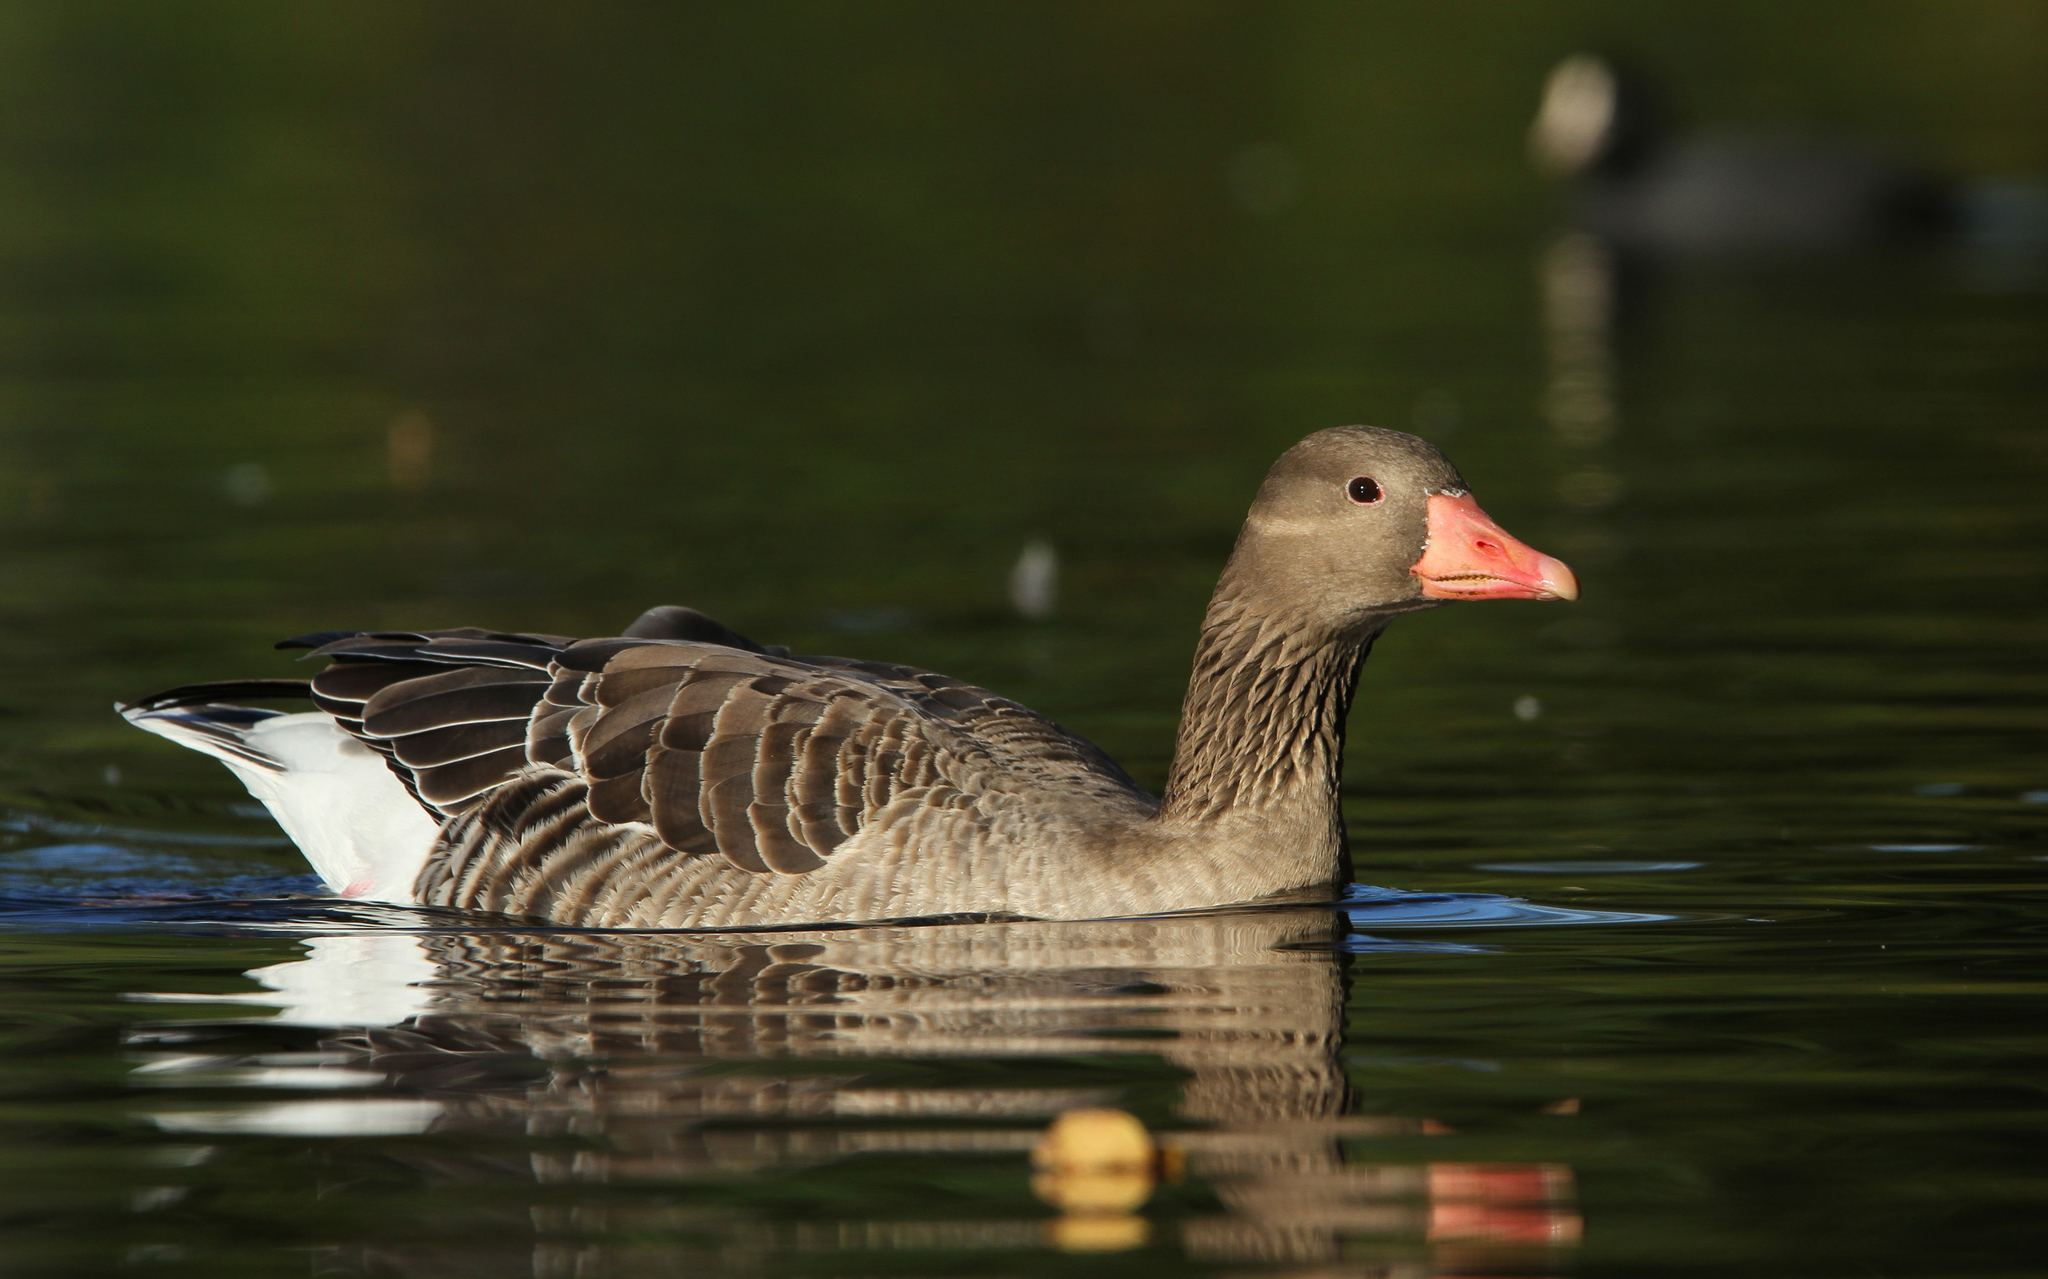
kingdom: Animalia
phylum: Chordata
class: Aves
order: Anseriformes
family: Anatidae
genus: Anser
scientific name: Anser anser
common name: Greylag goose
